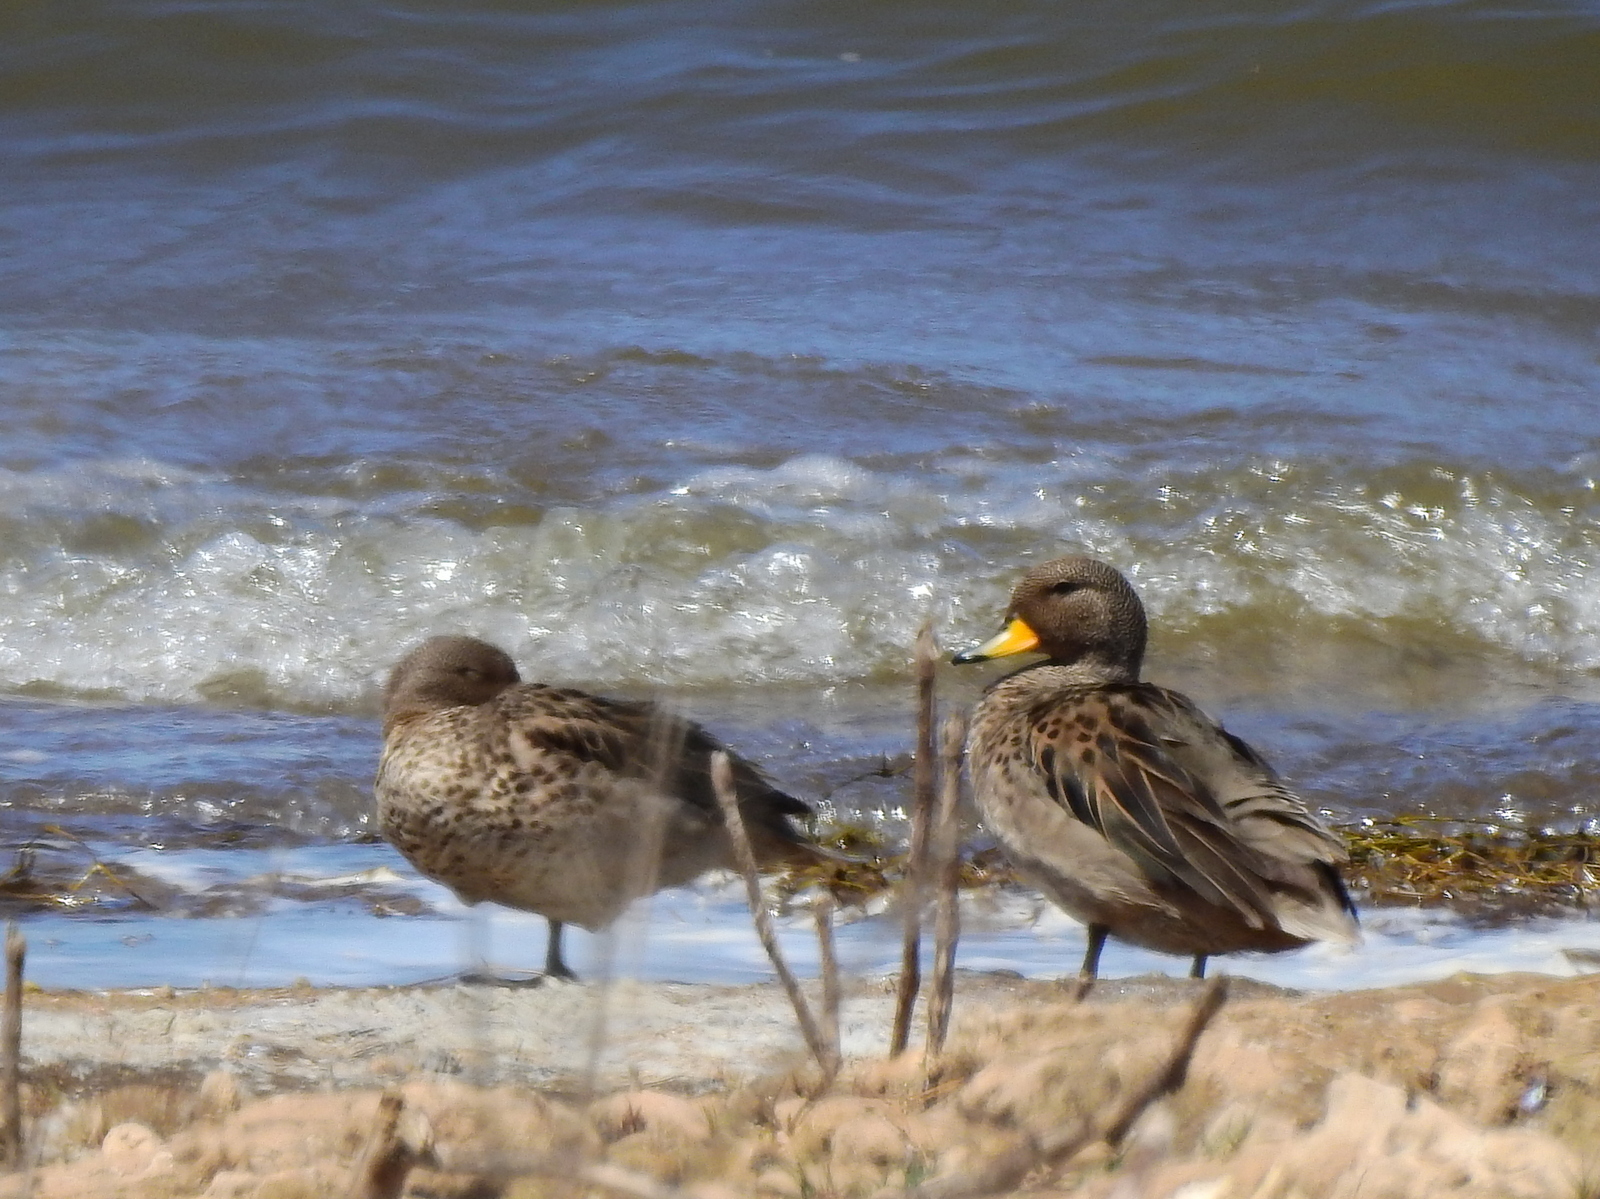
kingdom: Animalia
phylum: Chordata
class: Aves
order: Anseriformes
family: Anatidae
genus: Anas
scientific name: Anas flavirostris
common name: Yellow-billed teal
